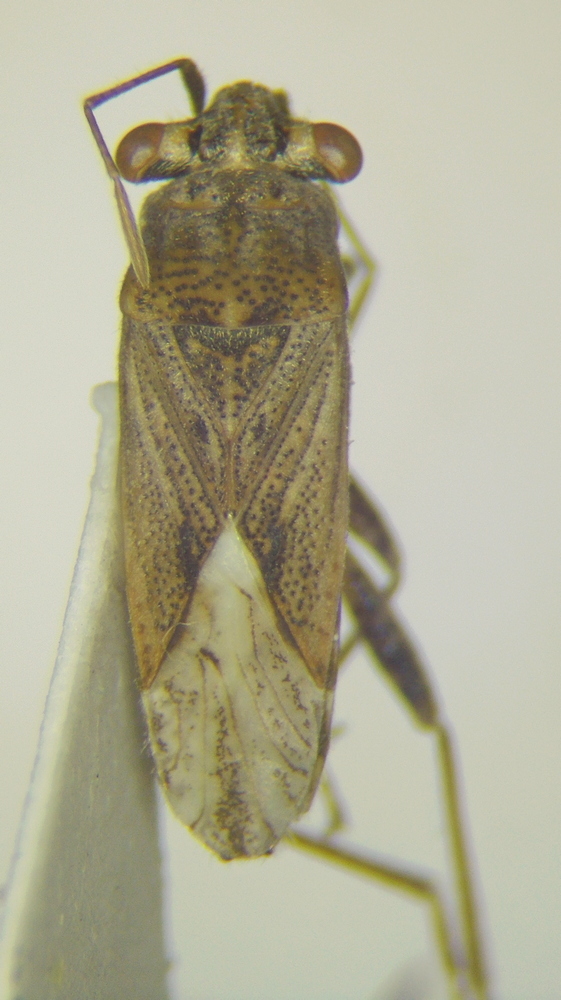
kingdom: Animalia
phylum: Arthropoda
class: Insecta
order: Hemiptera
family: Geocoridae
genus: Henestaris
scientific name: Henestaris halophilus
